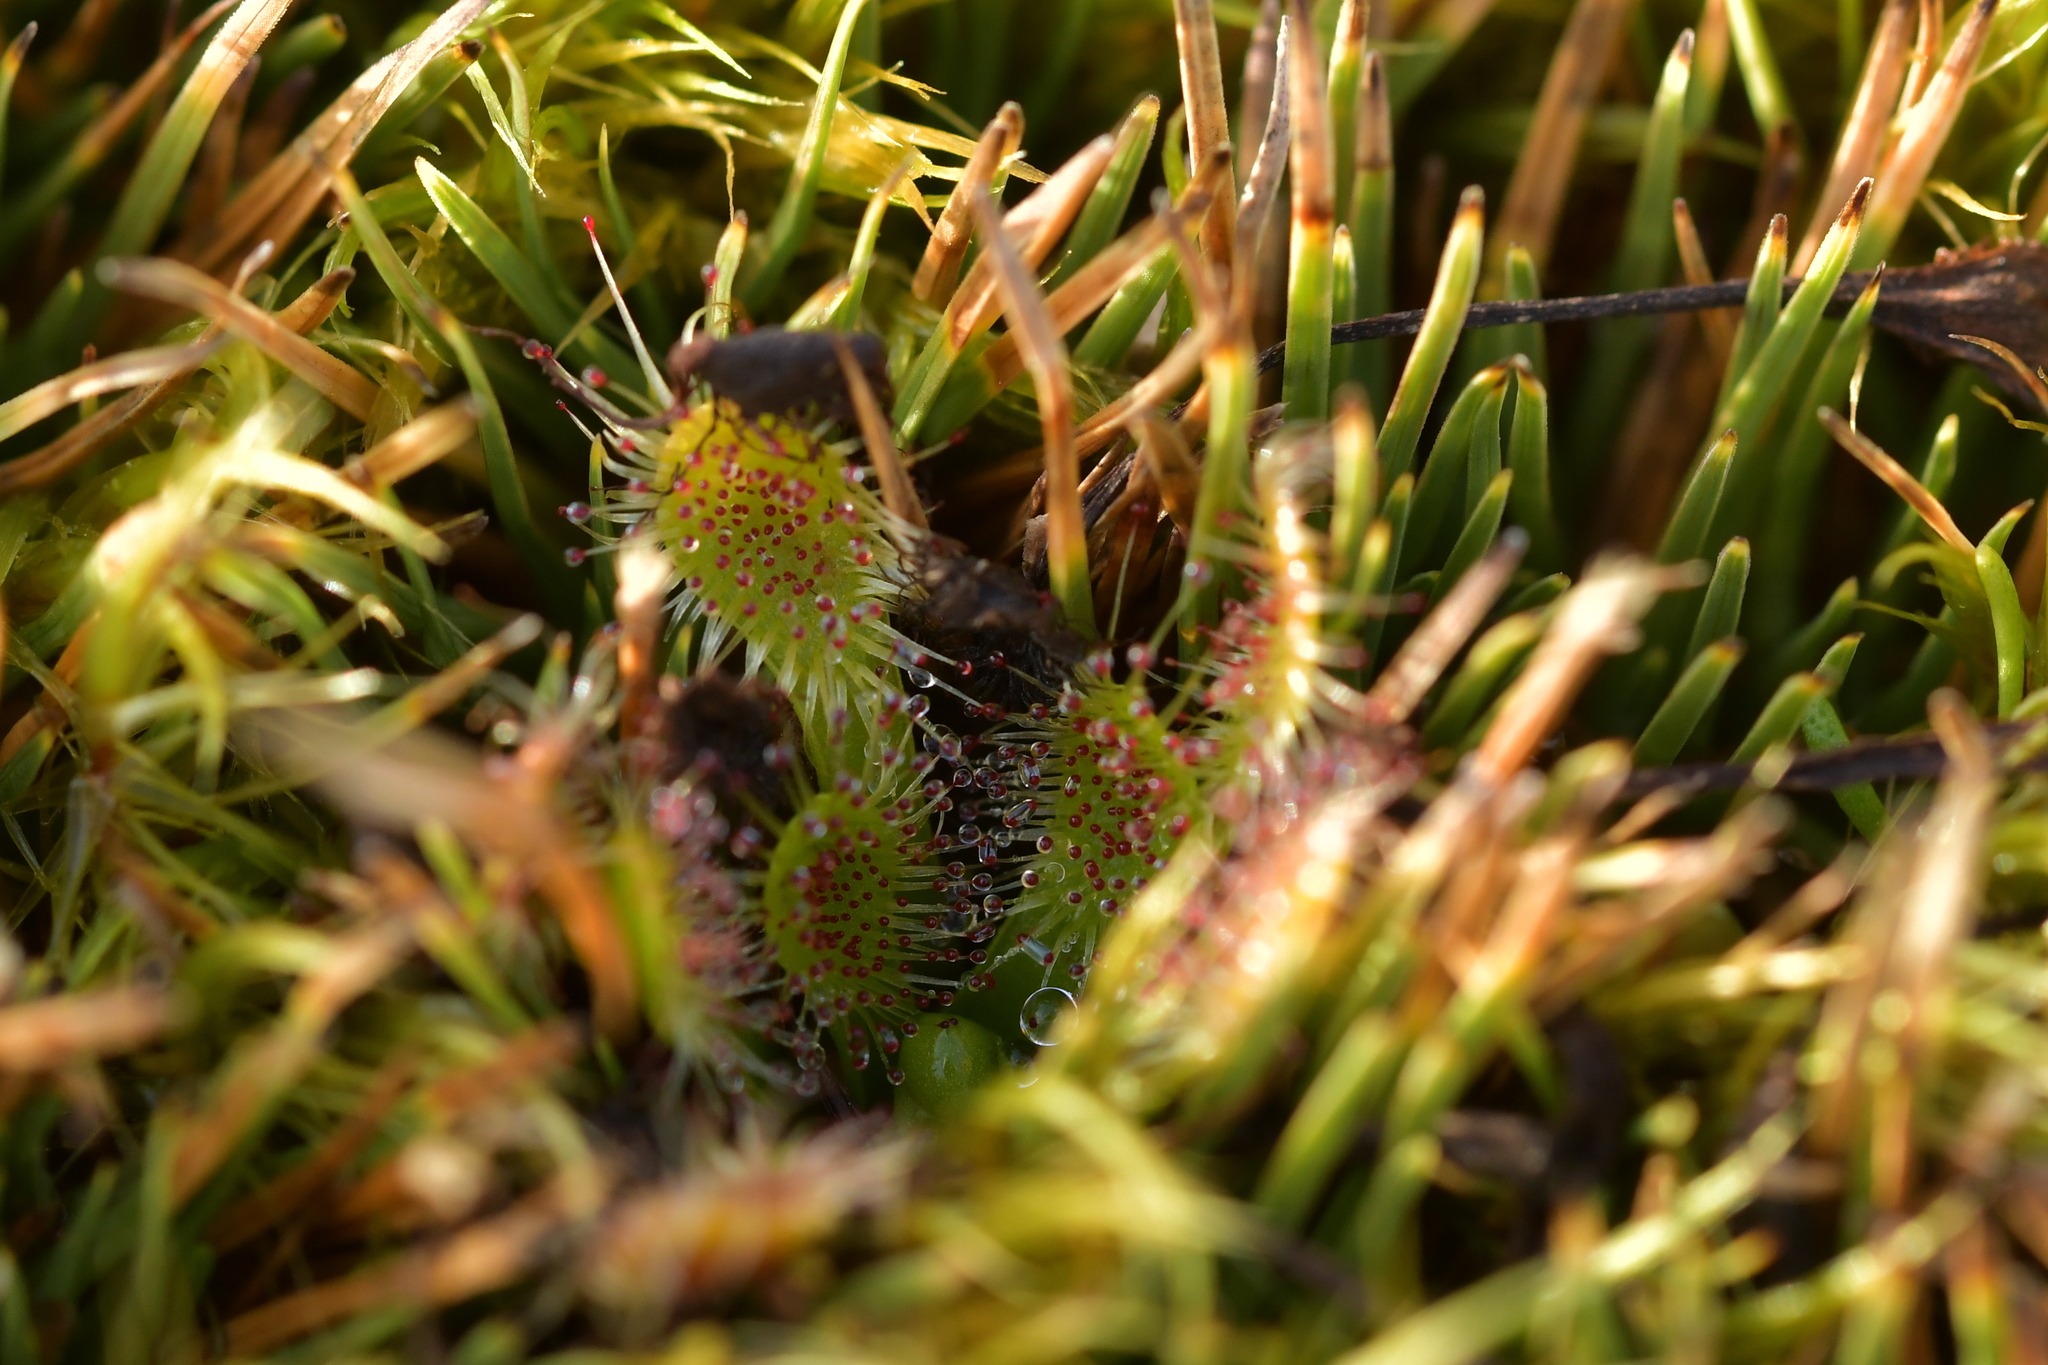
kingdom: Plantae
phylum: Tracheophyta
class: Magnoliopsida
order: Caryophyllales
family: Droseraceae
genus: Drosera
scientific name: Drosera stenopetala
